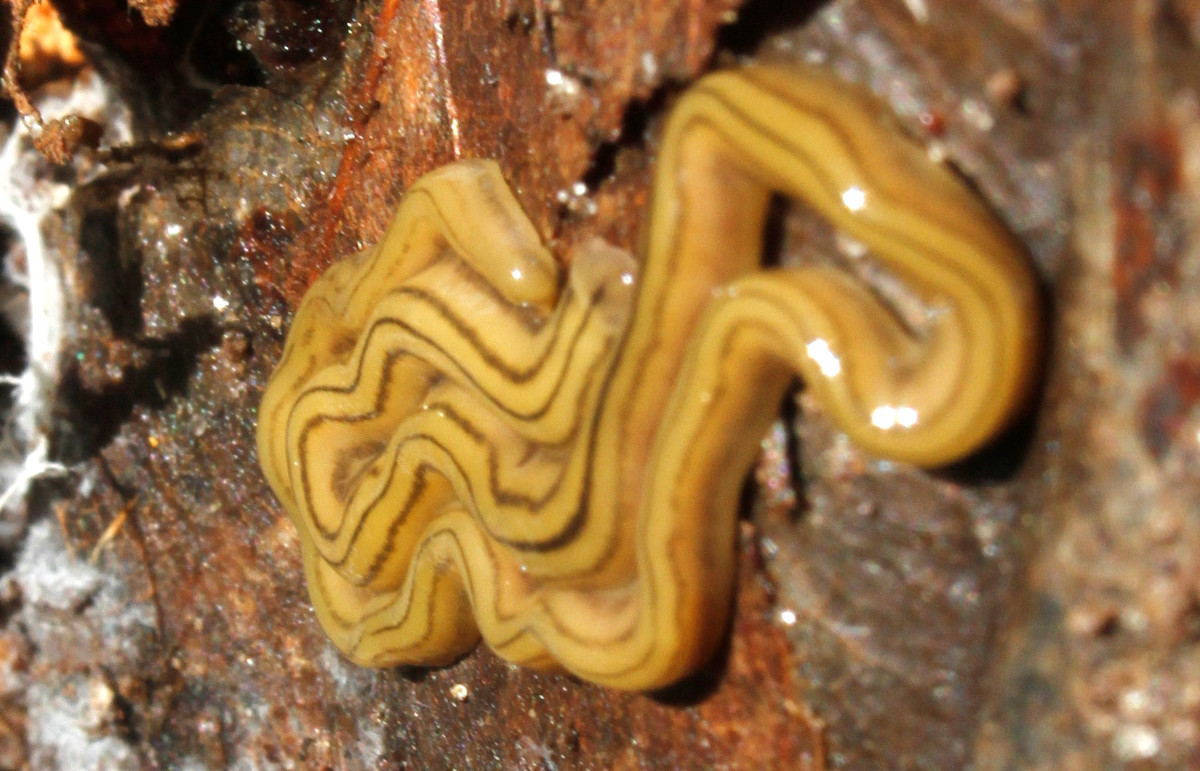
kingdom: Animalia
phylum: Platyhelminthes
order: Tricladida
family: Geoplanidae
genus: Diversibipalium
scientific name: Diversibipalium multilineatum
